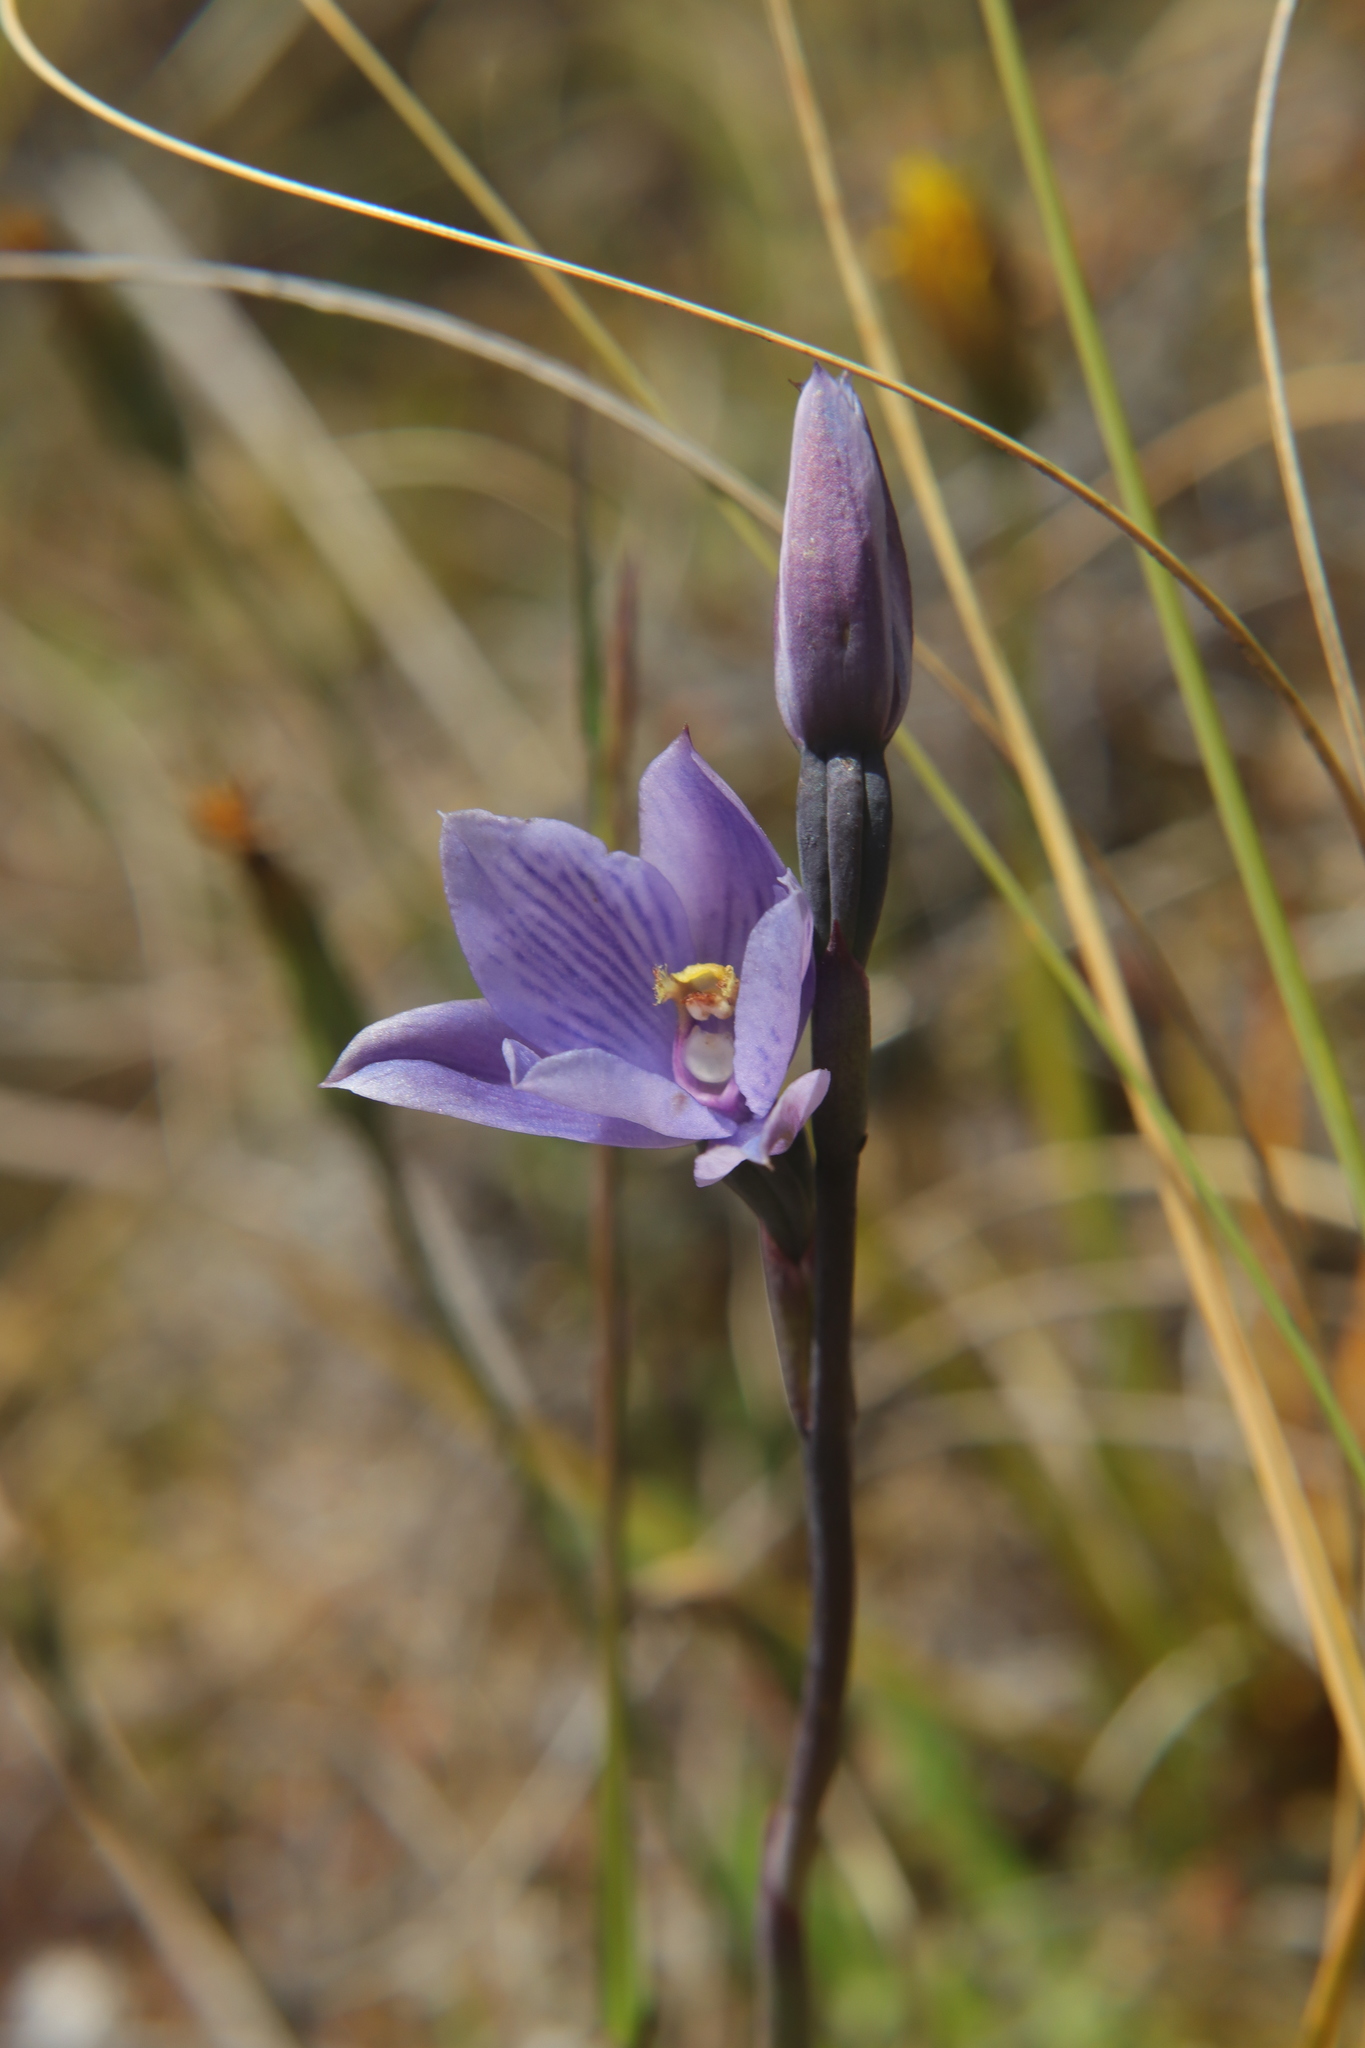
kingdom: Plantae
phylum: Tracheophyta
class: Liliopsida
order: Asparagales
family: Orchidaceae
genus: Thelymitra
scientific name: Thelymitra pulchella
